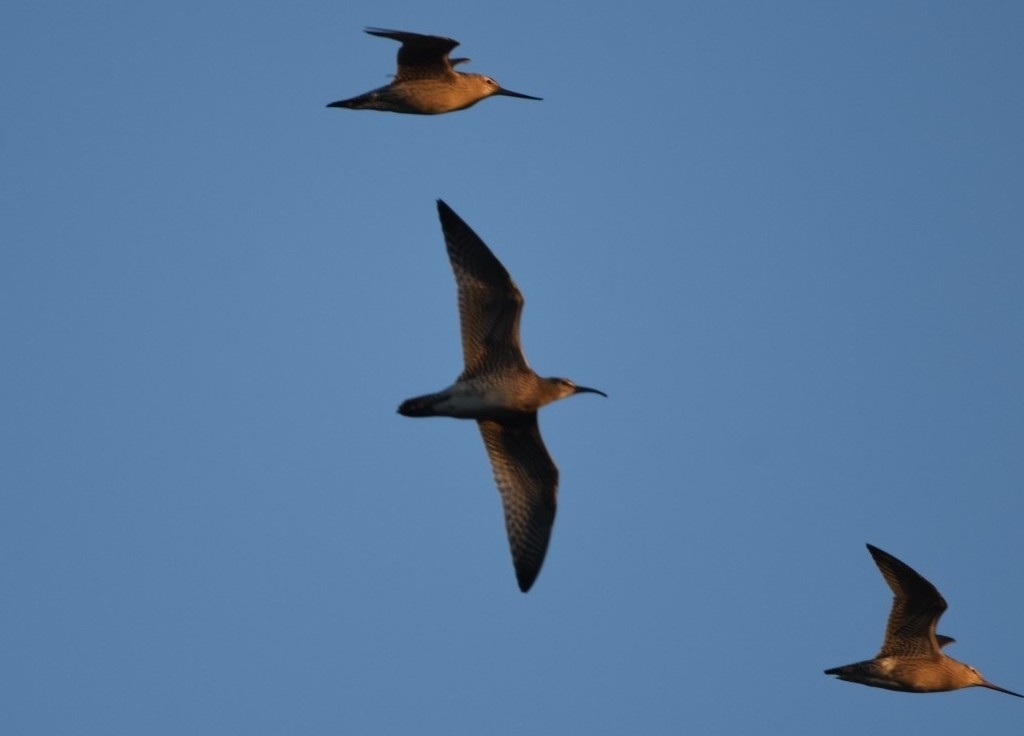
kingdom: Animalia
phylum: Chordata
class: Aves
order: Charadriiformes
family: Scolopacidae
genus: Numenius
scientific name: Numenius phaeopus
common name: Whimbrel
